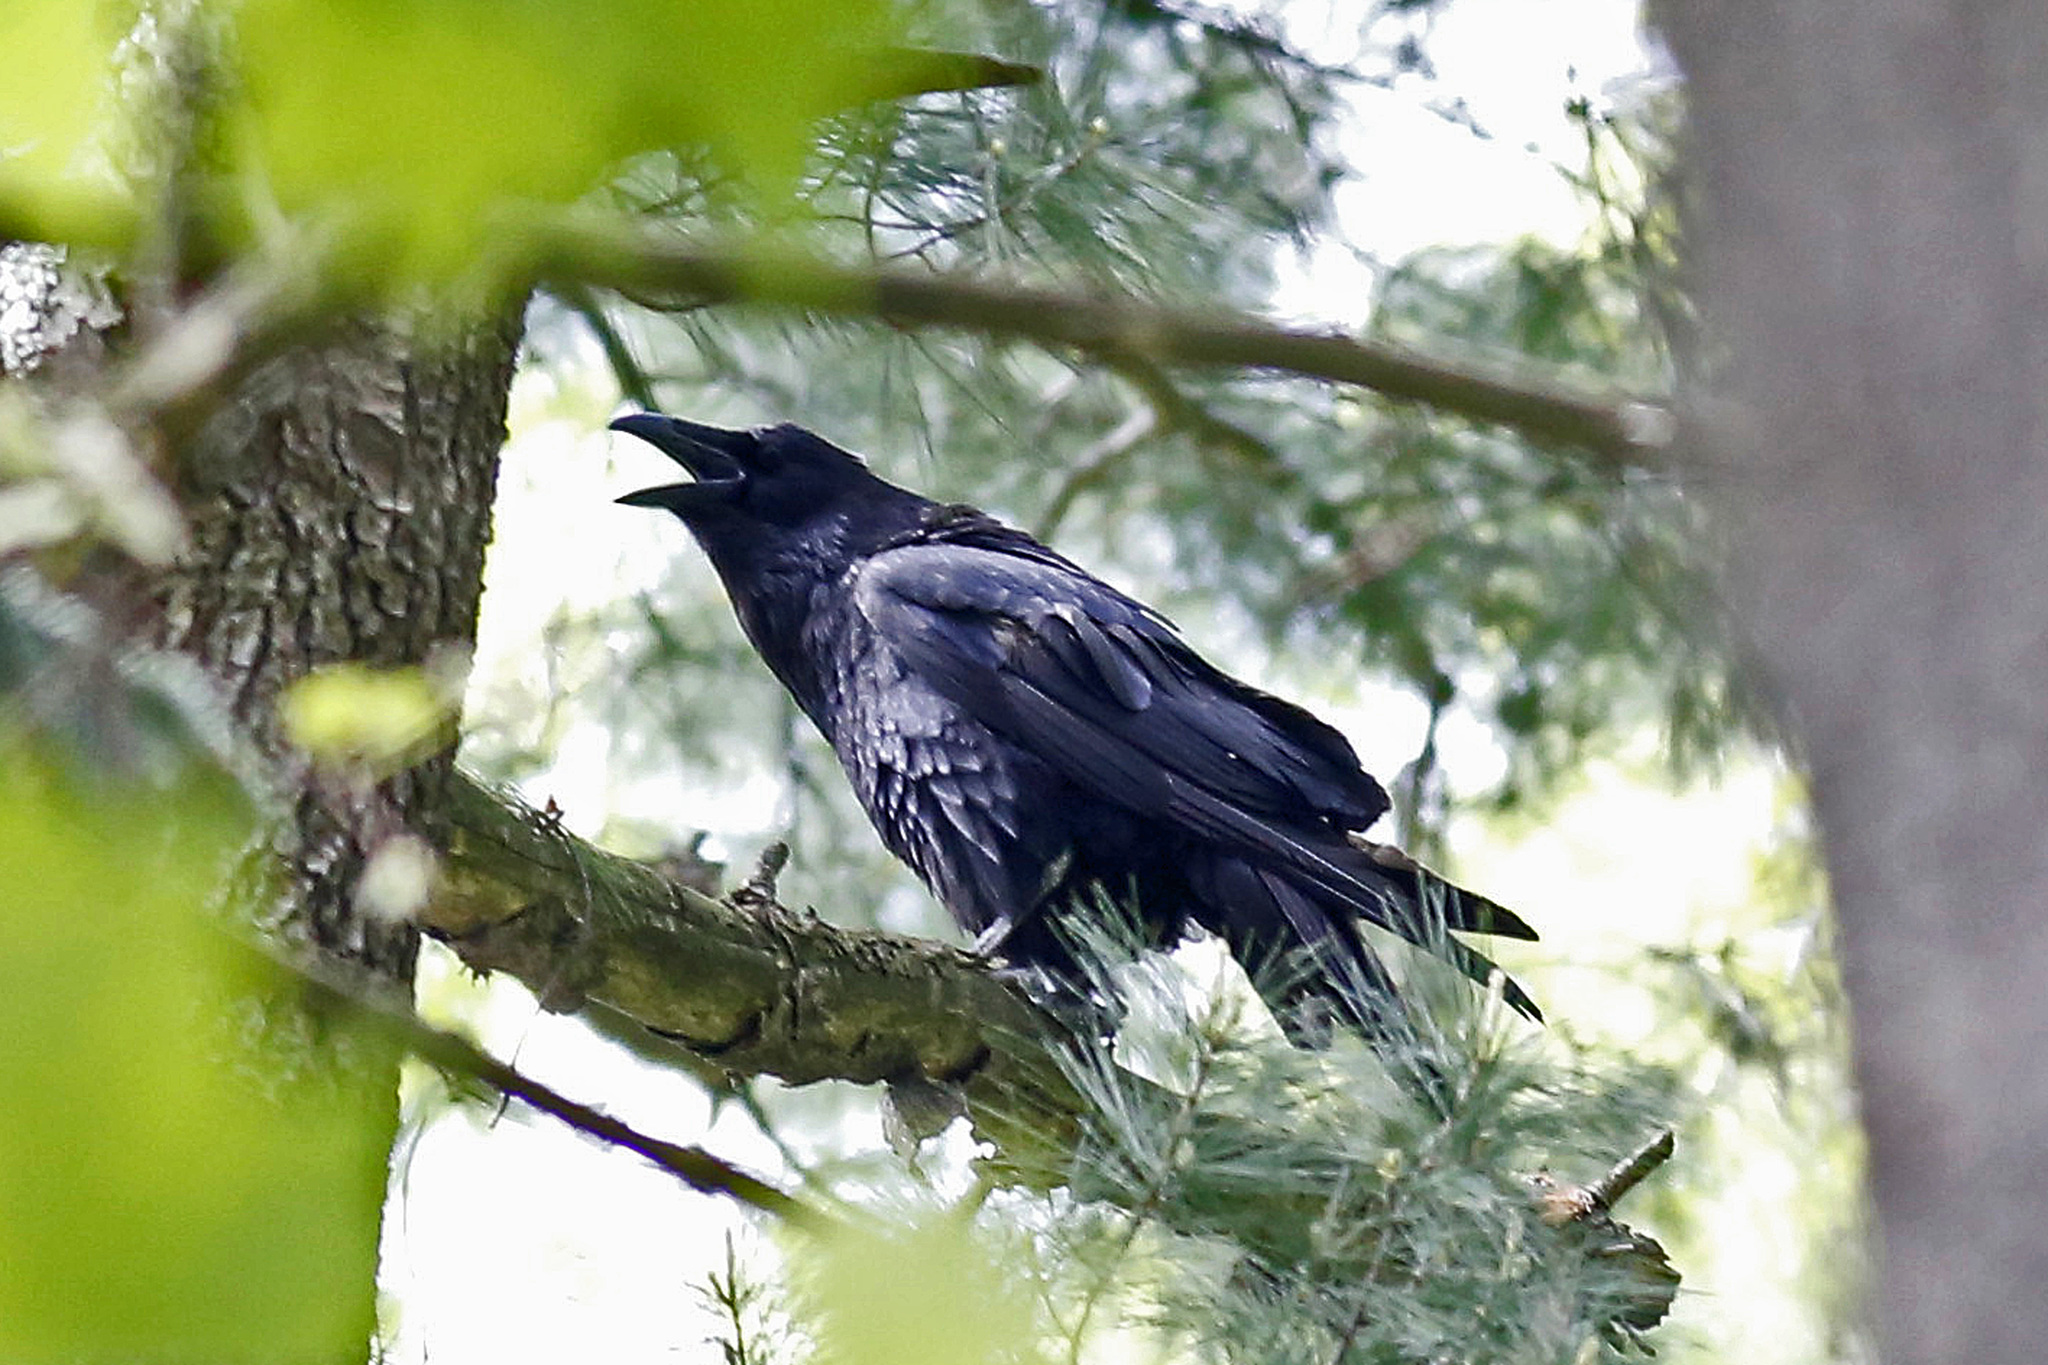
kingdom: Animalia
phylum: Chordata
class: Aves
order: Passeriformes
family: Corvidae
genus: Corvus
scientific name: Corvus corax
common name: Common raven
